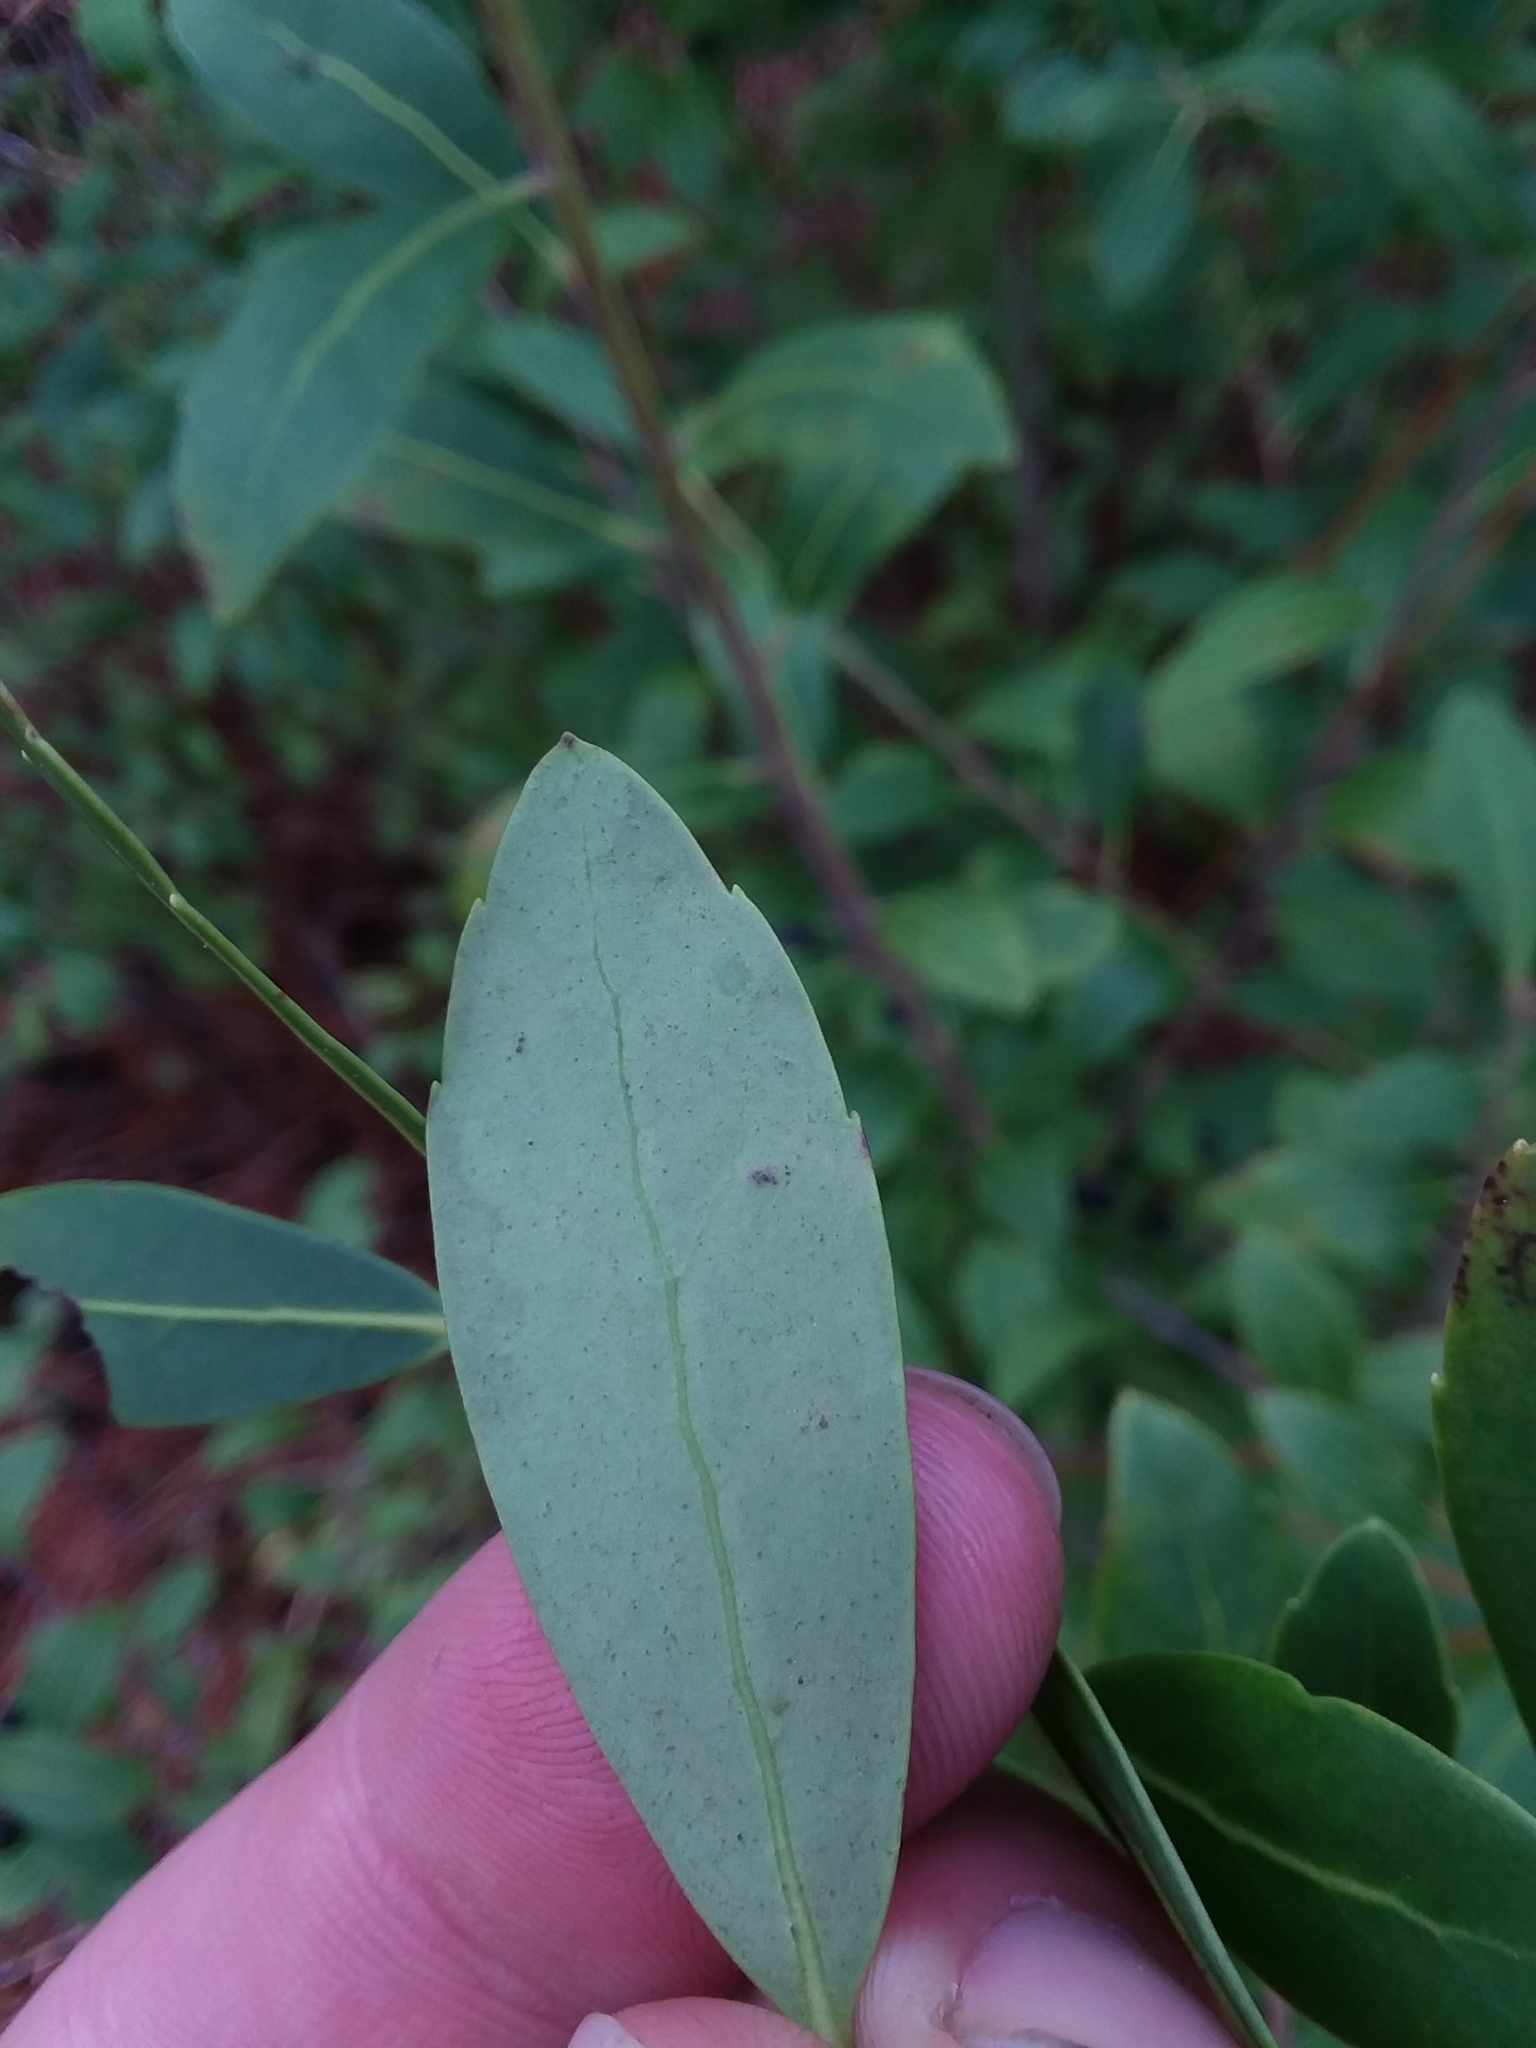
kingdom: Plantae
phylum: Tracheophyta
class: Magnoliopsida
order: Aquifoliales
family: Aquifoliaceae
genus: Ilex
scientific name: Ilex glabra
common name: Bitter gallberry
